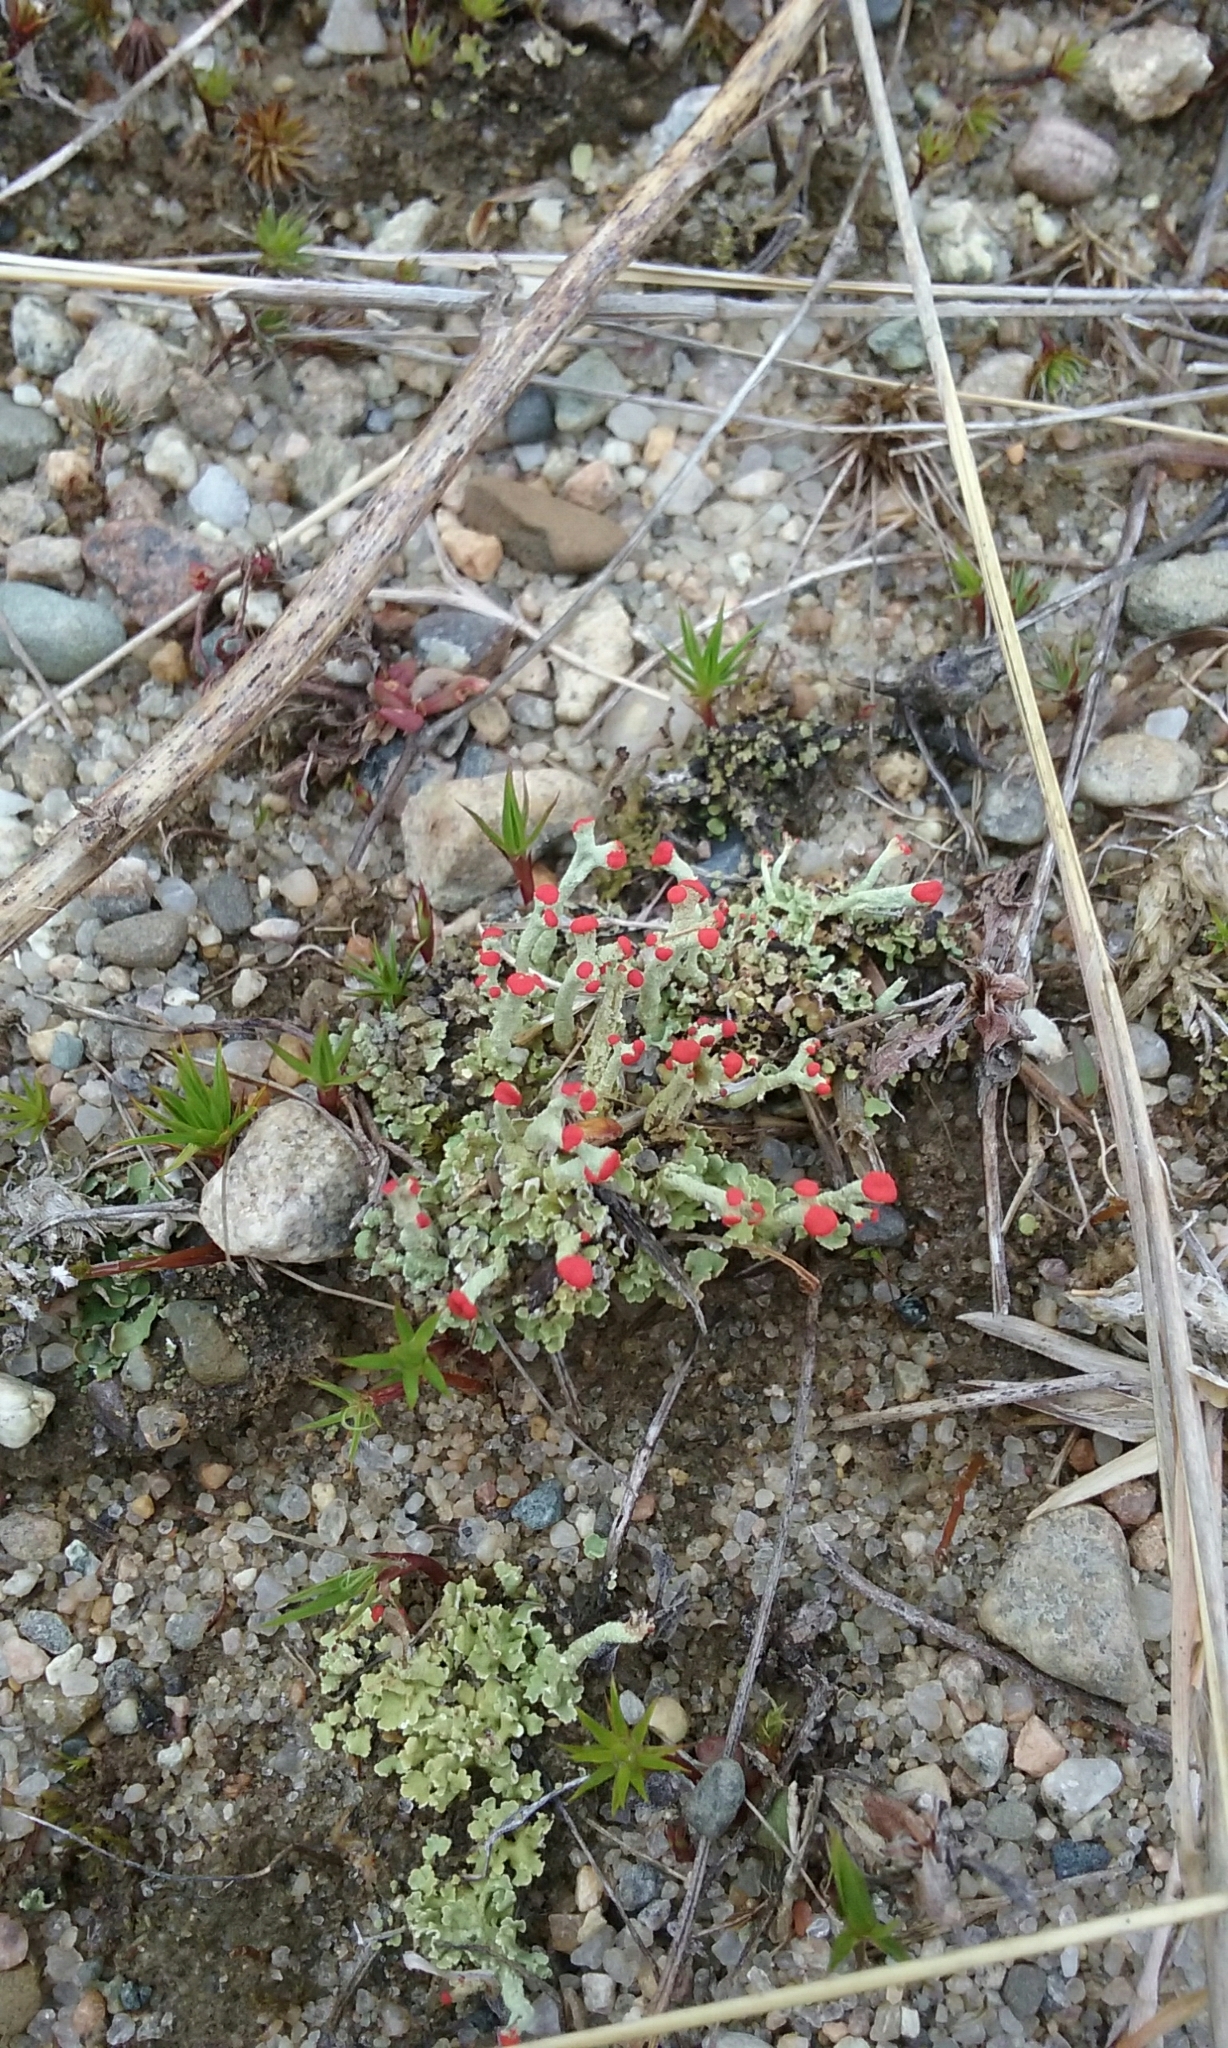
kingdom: Fungi
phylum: Ascomycota
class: Lecanoromycetes
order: Lecanorales
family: Cladoniaceae
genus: Cladonia
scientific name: Cladonia cristatella
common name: British soldier lichen
